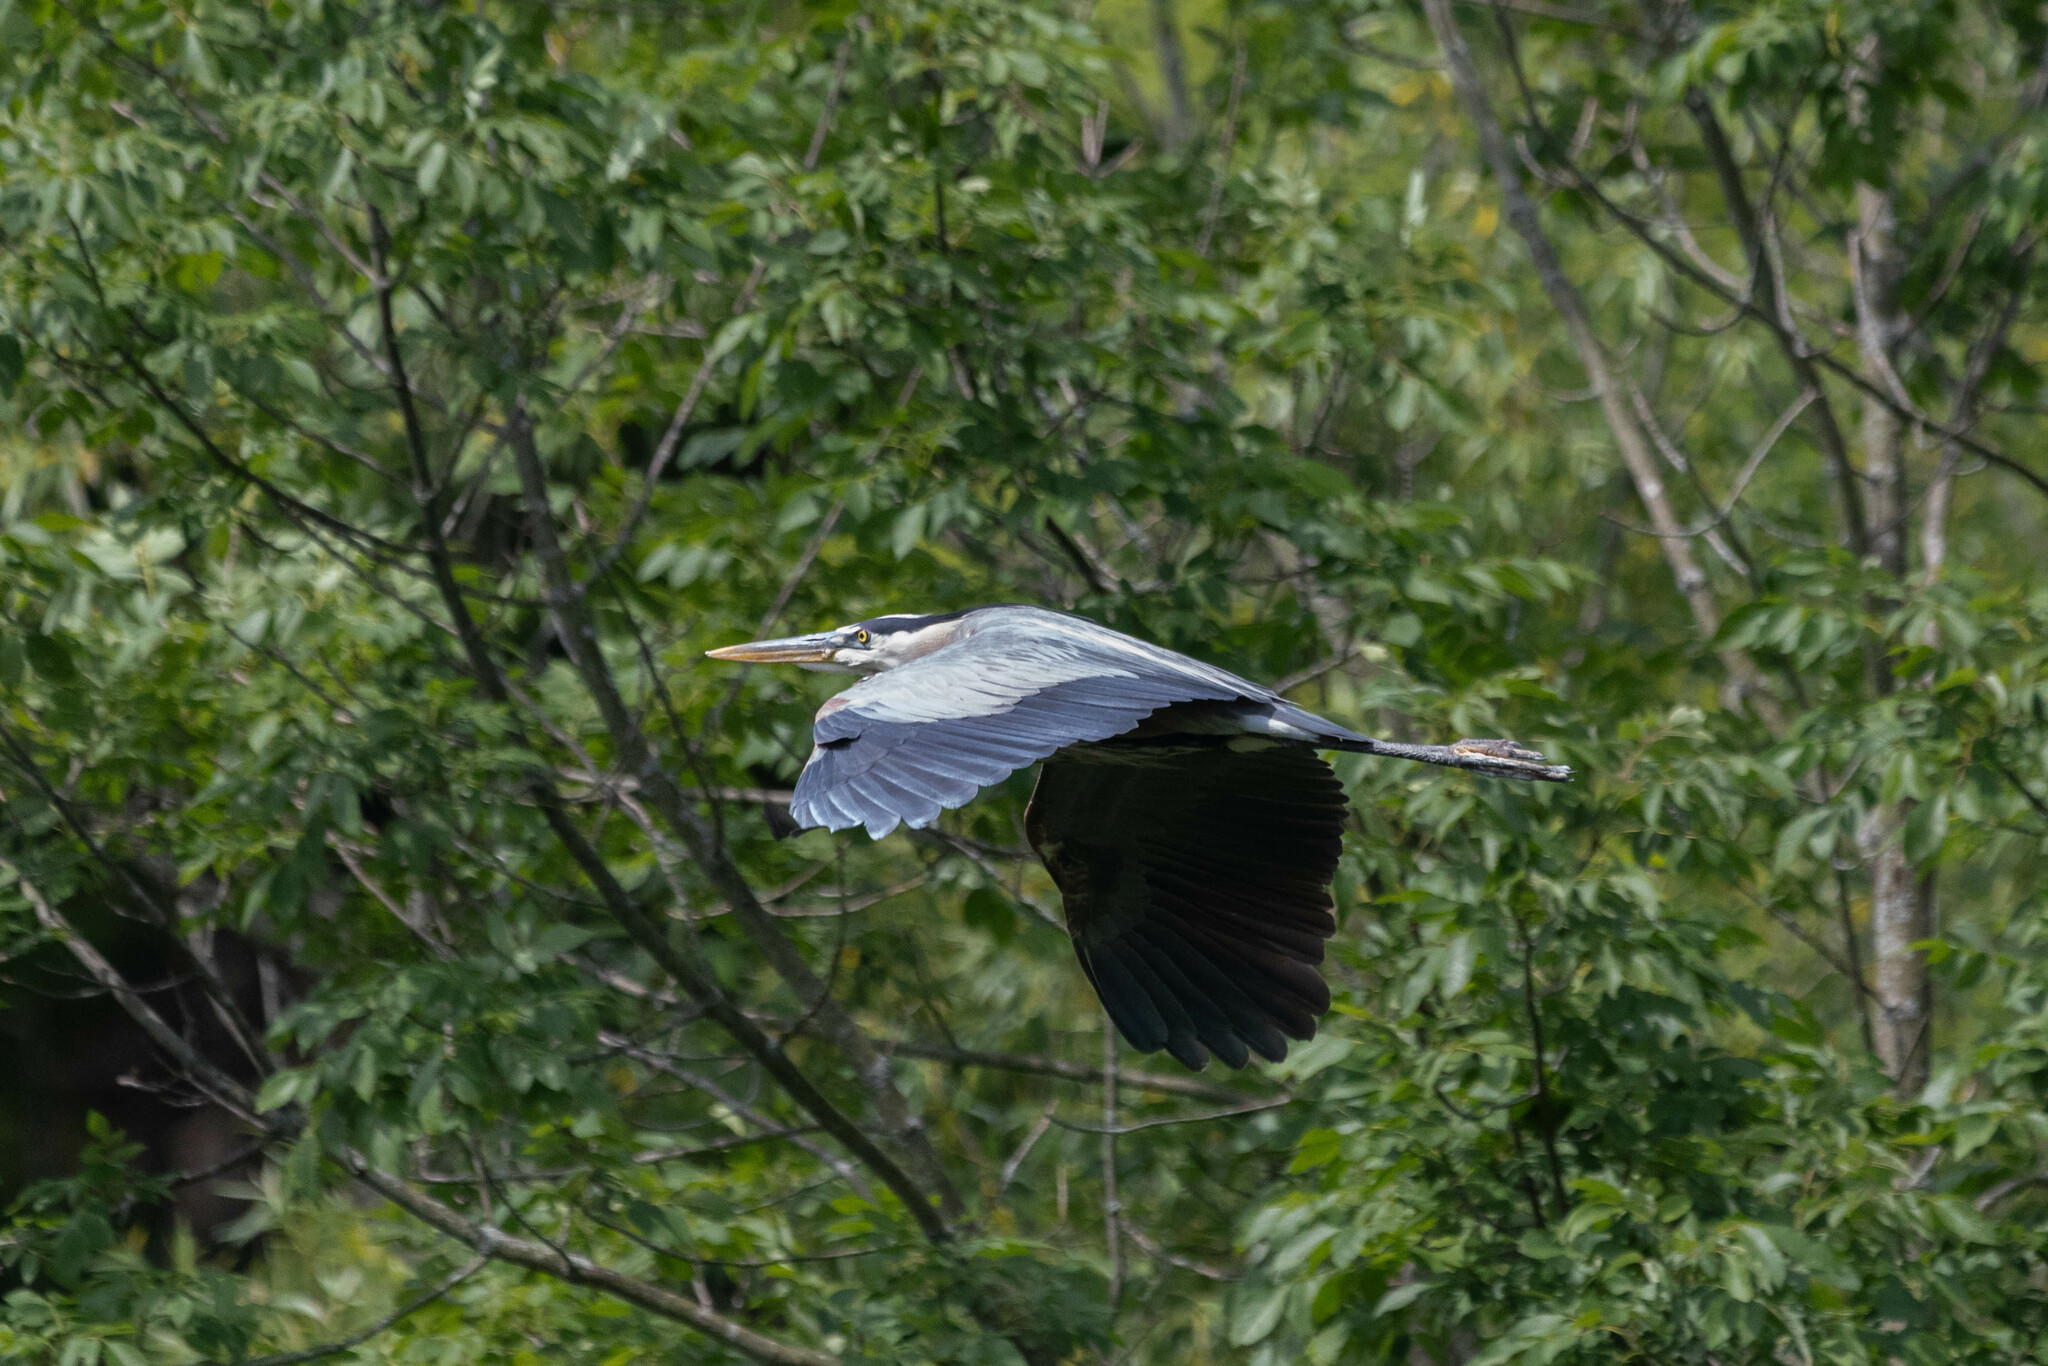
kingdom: Animalia
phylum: Chordata
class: Aves
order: Pelecaniformes
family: Ardeidae
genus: Ardea
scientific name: Ardea herodias
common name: Great blue heron
